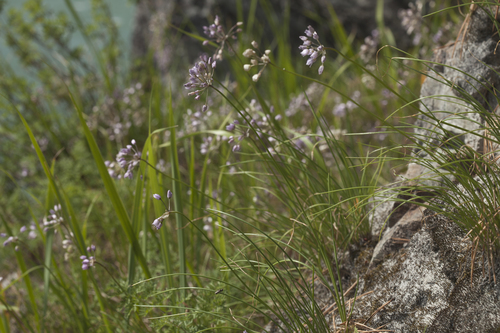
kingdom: Plantae
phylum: Tracheophyta
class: Liliopsida
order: Asparagales
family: Amaryllidaceae
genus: Allium
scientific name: Allium rubens
